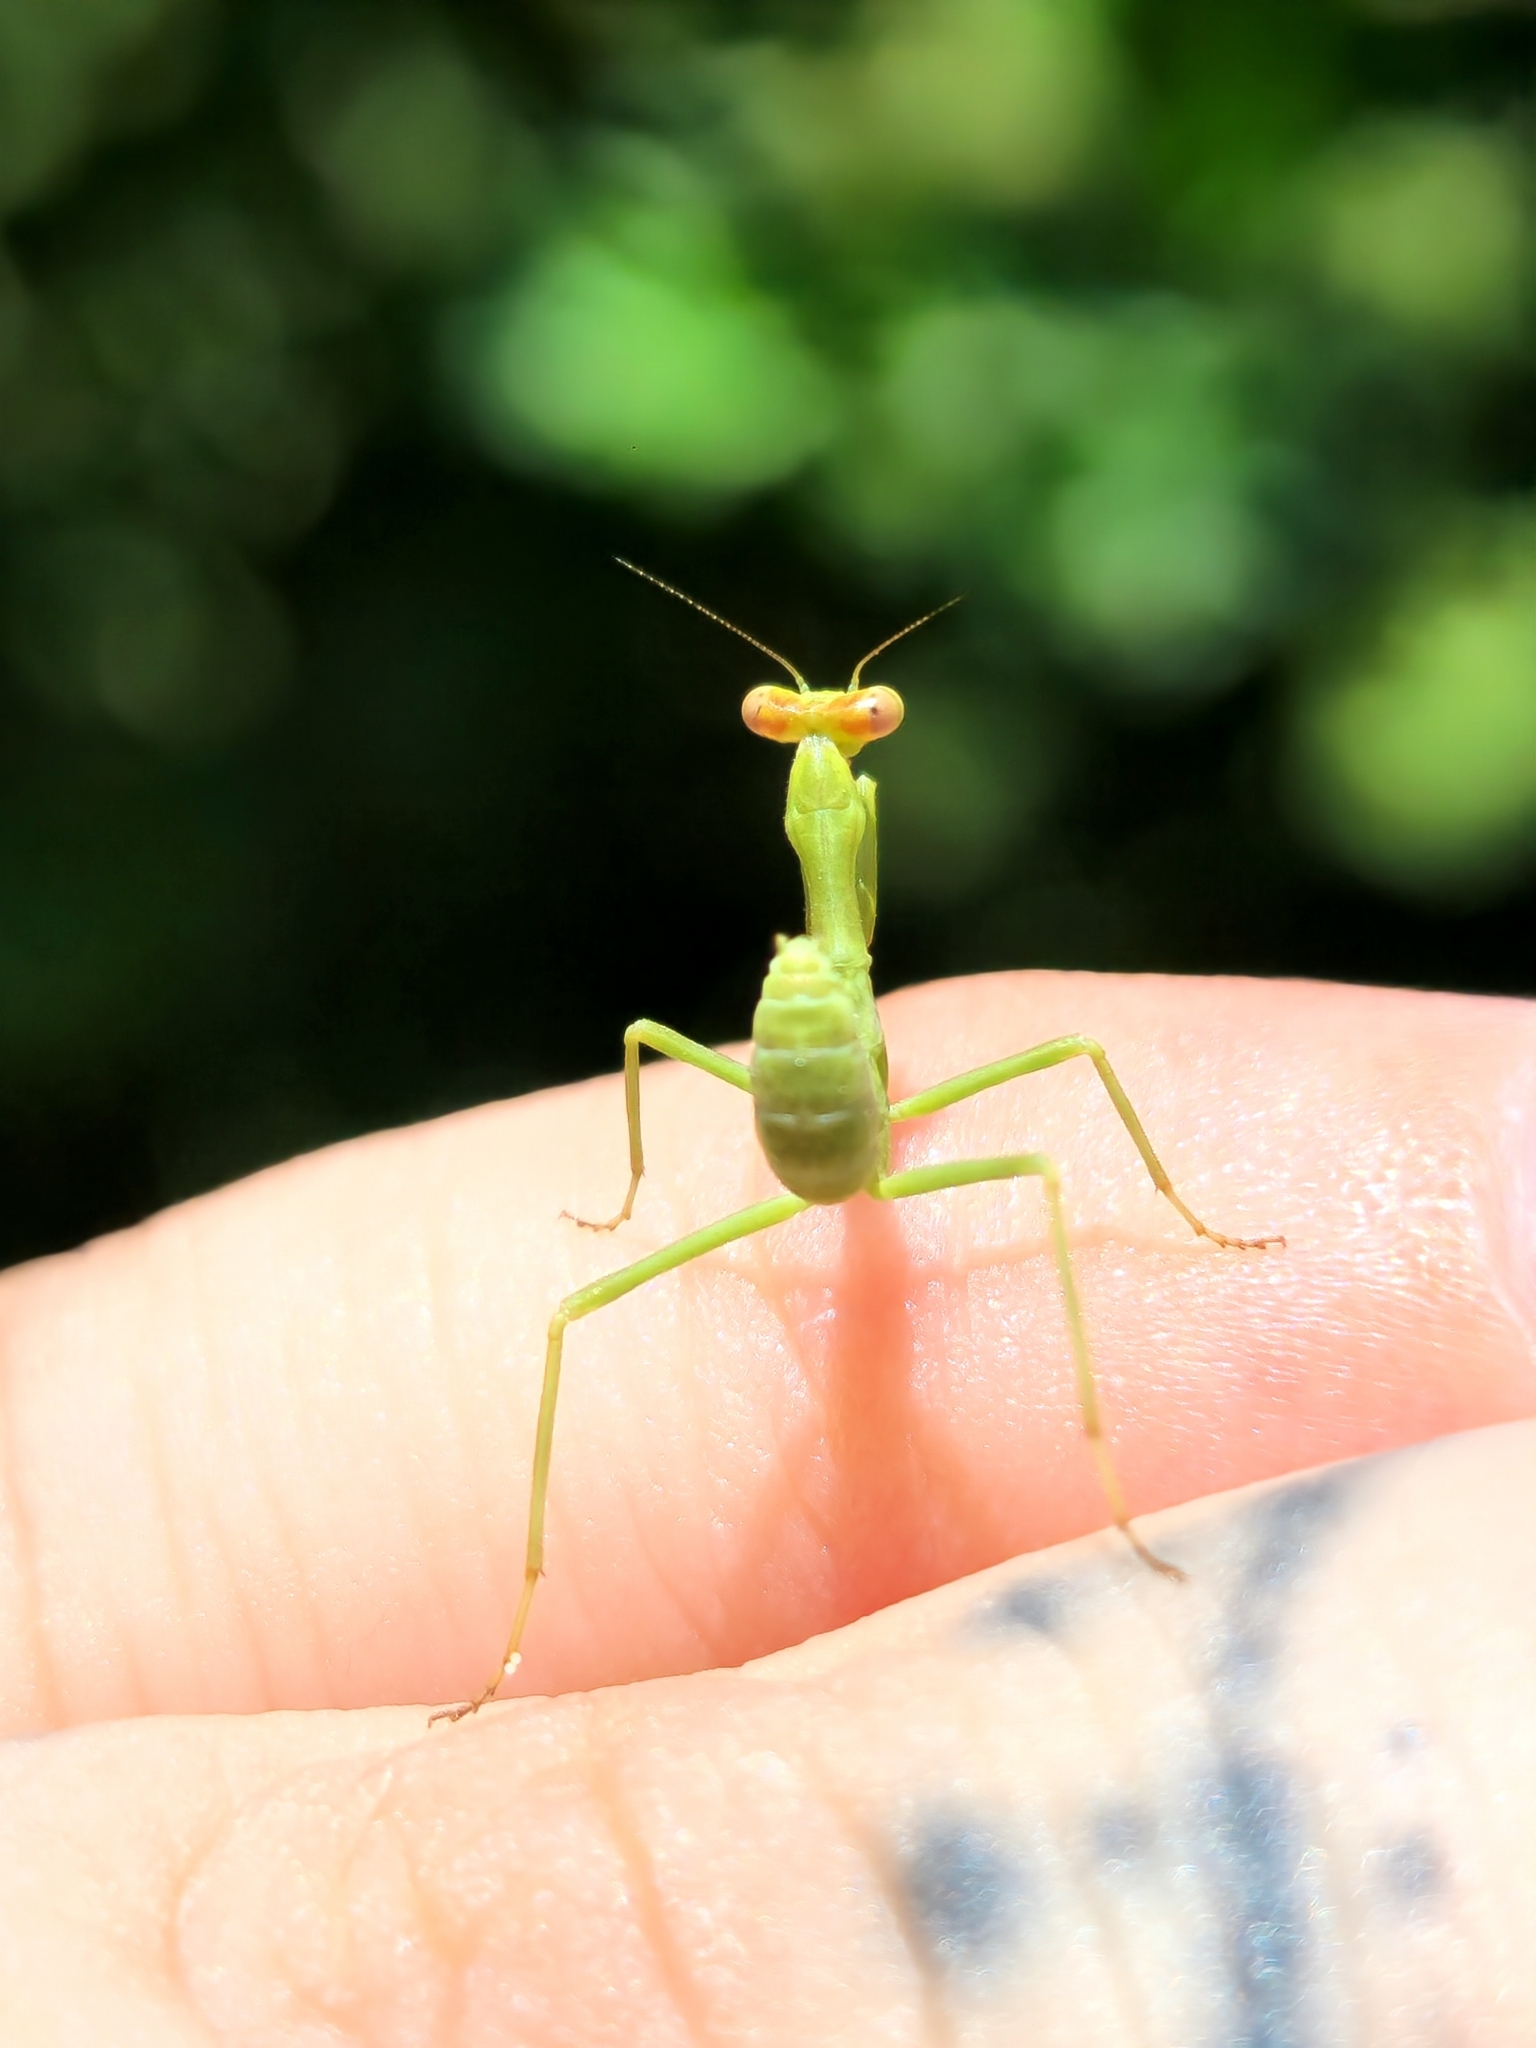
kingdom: Animalia
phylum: Arthropoda
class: Insecta
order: Mantodea
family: Mantidae
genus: Stagmatoptera
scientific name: Stagmatoptera hyaloptera
